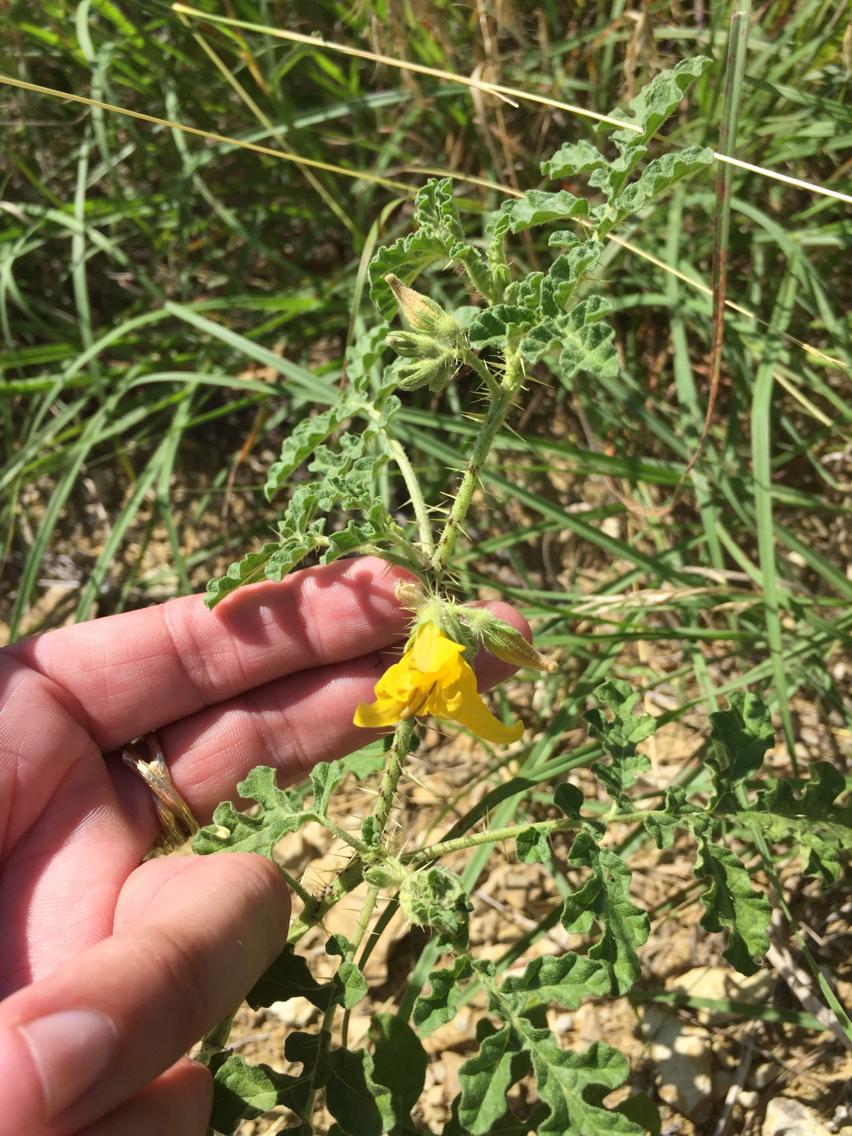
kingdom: Plantae
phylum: Tracheophyta
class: Magnoliopsida
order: Solanales
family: Solanaceae
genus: Solanum
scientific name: Solanum angustifolium
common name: Buffalobur nightshade
